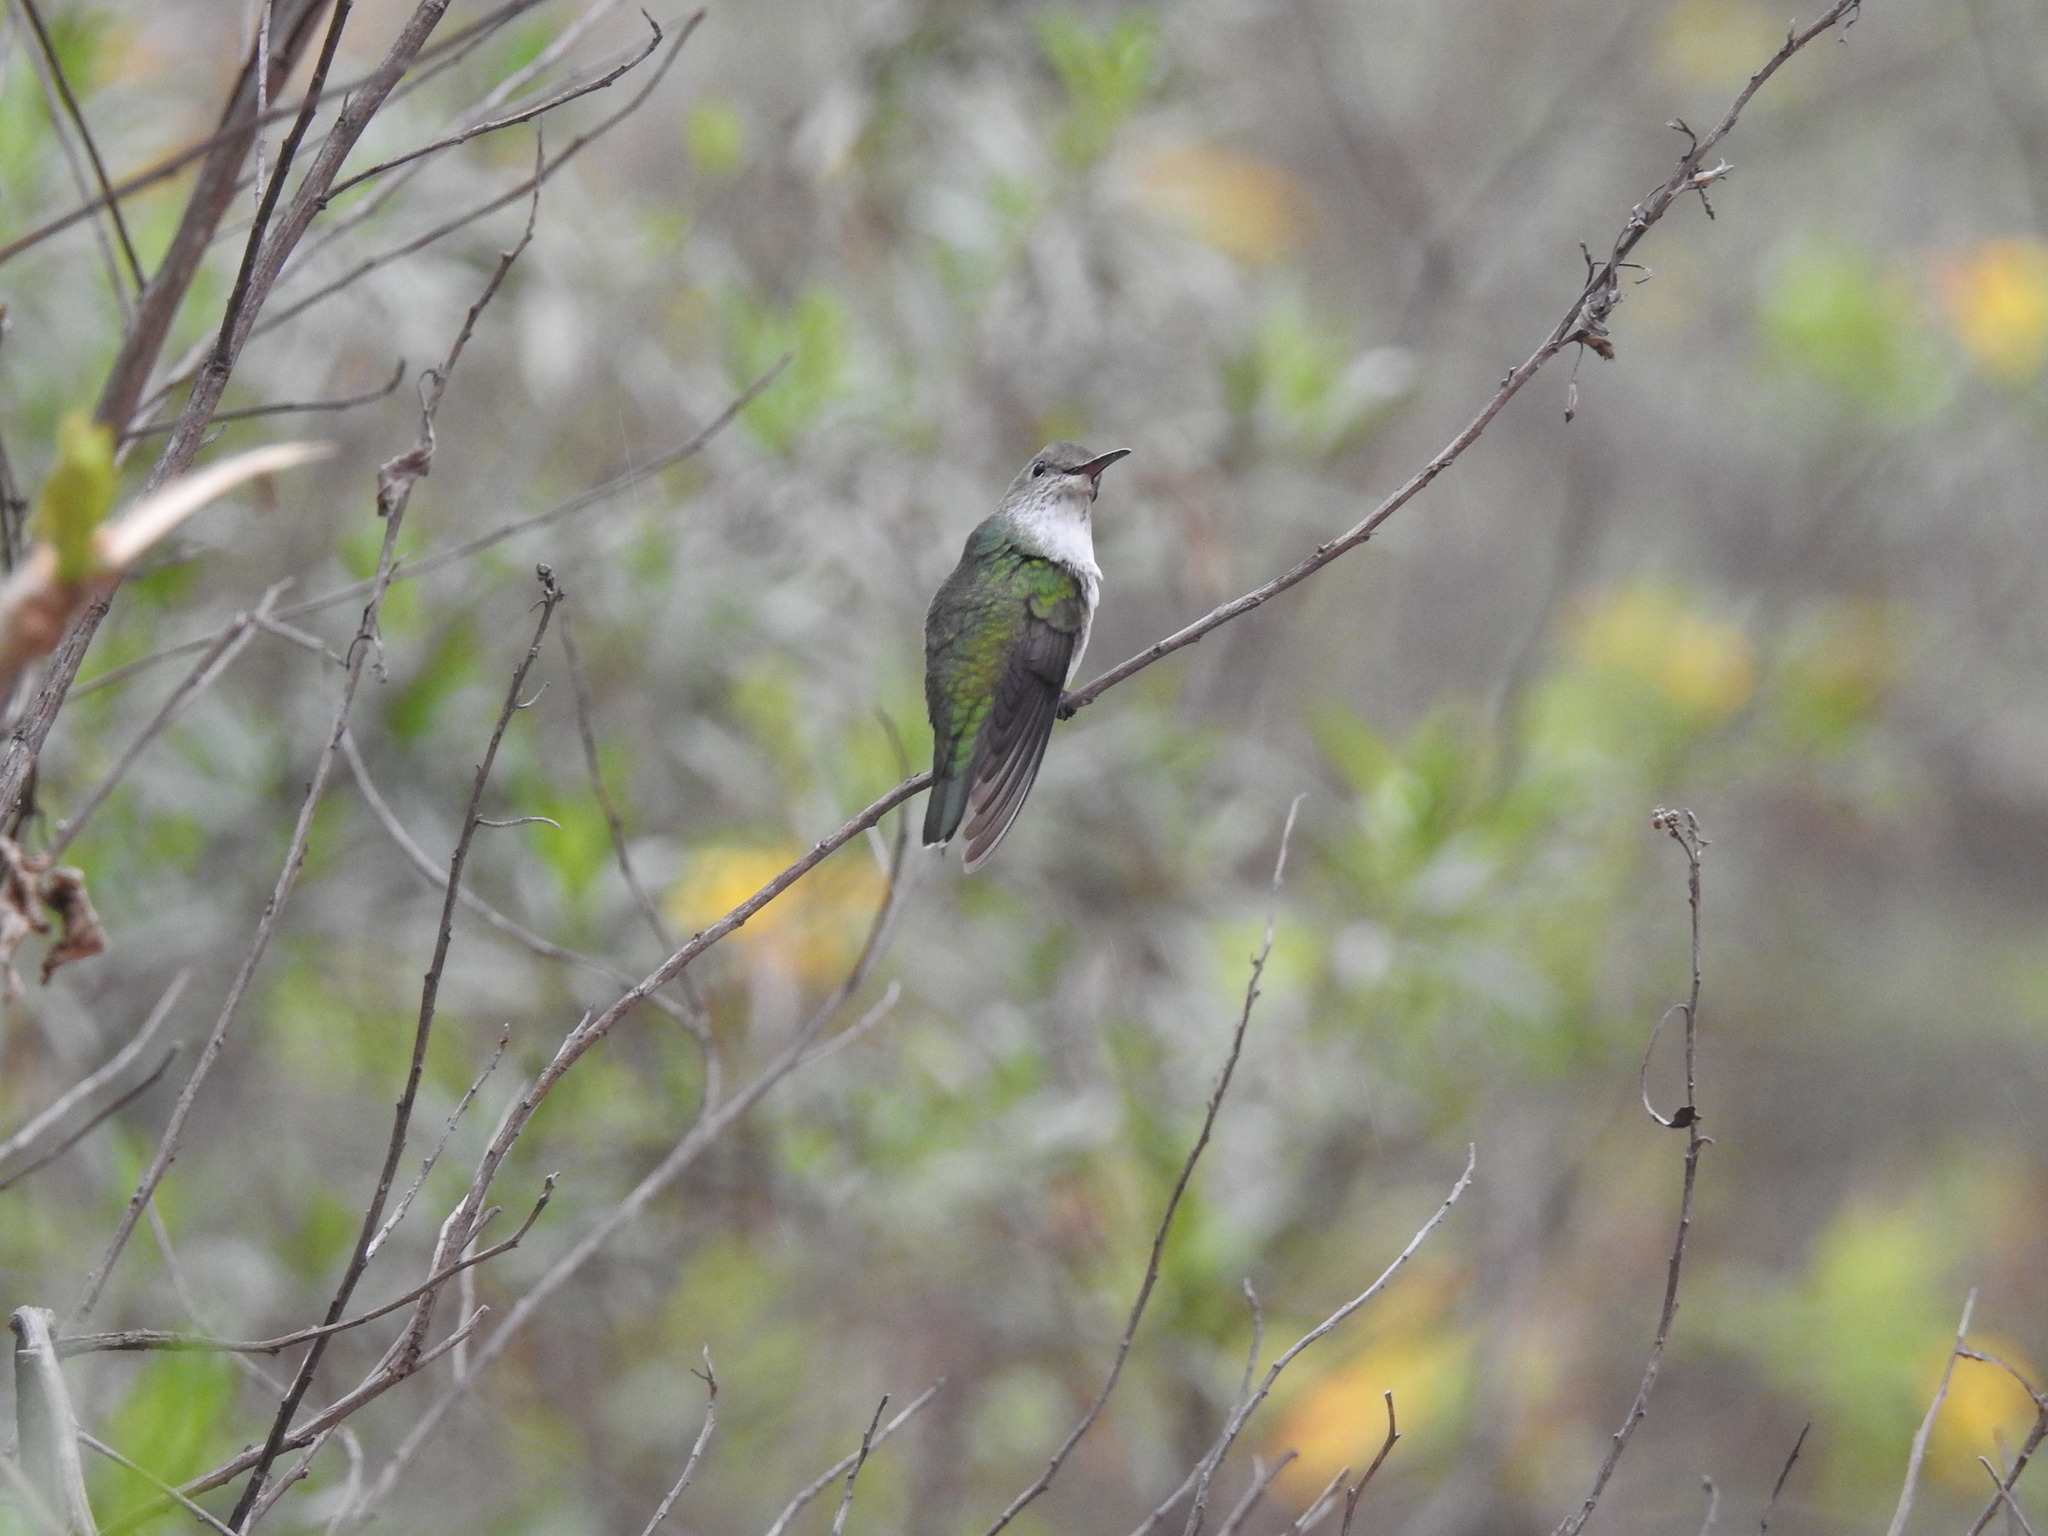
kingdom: Animalia
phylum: Chordata
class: Aves
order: Apodiformes
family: Trochilidae
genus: Elliotomyia
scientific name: Elliotomyia chionogaster
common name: White-bellied hummingbird
